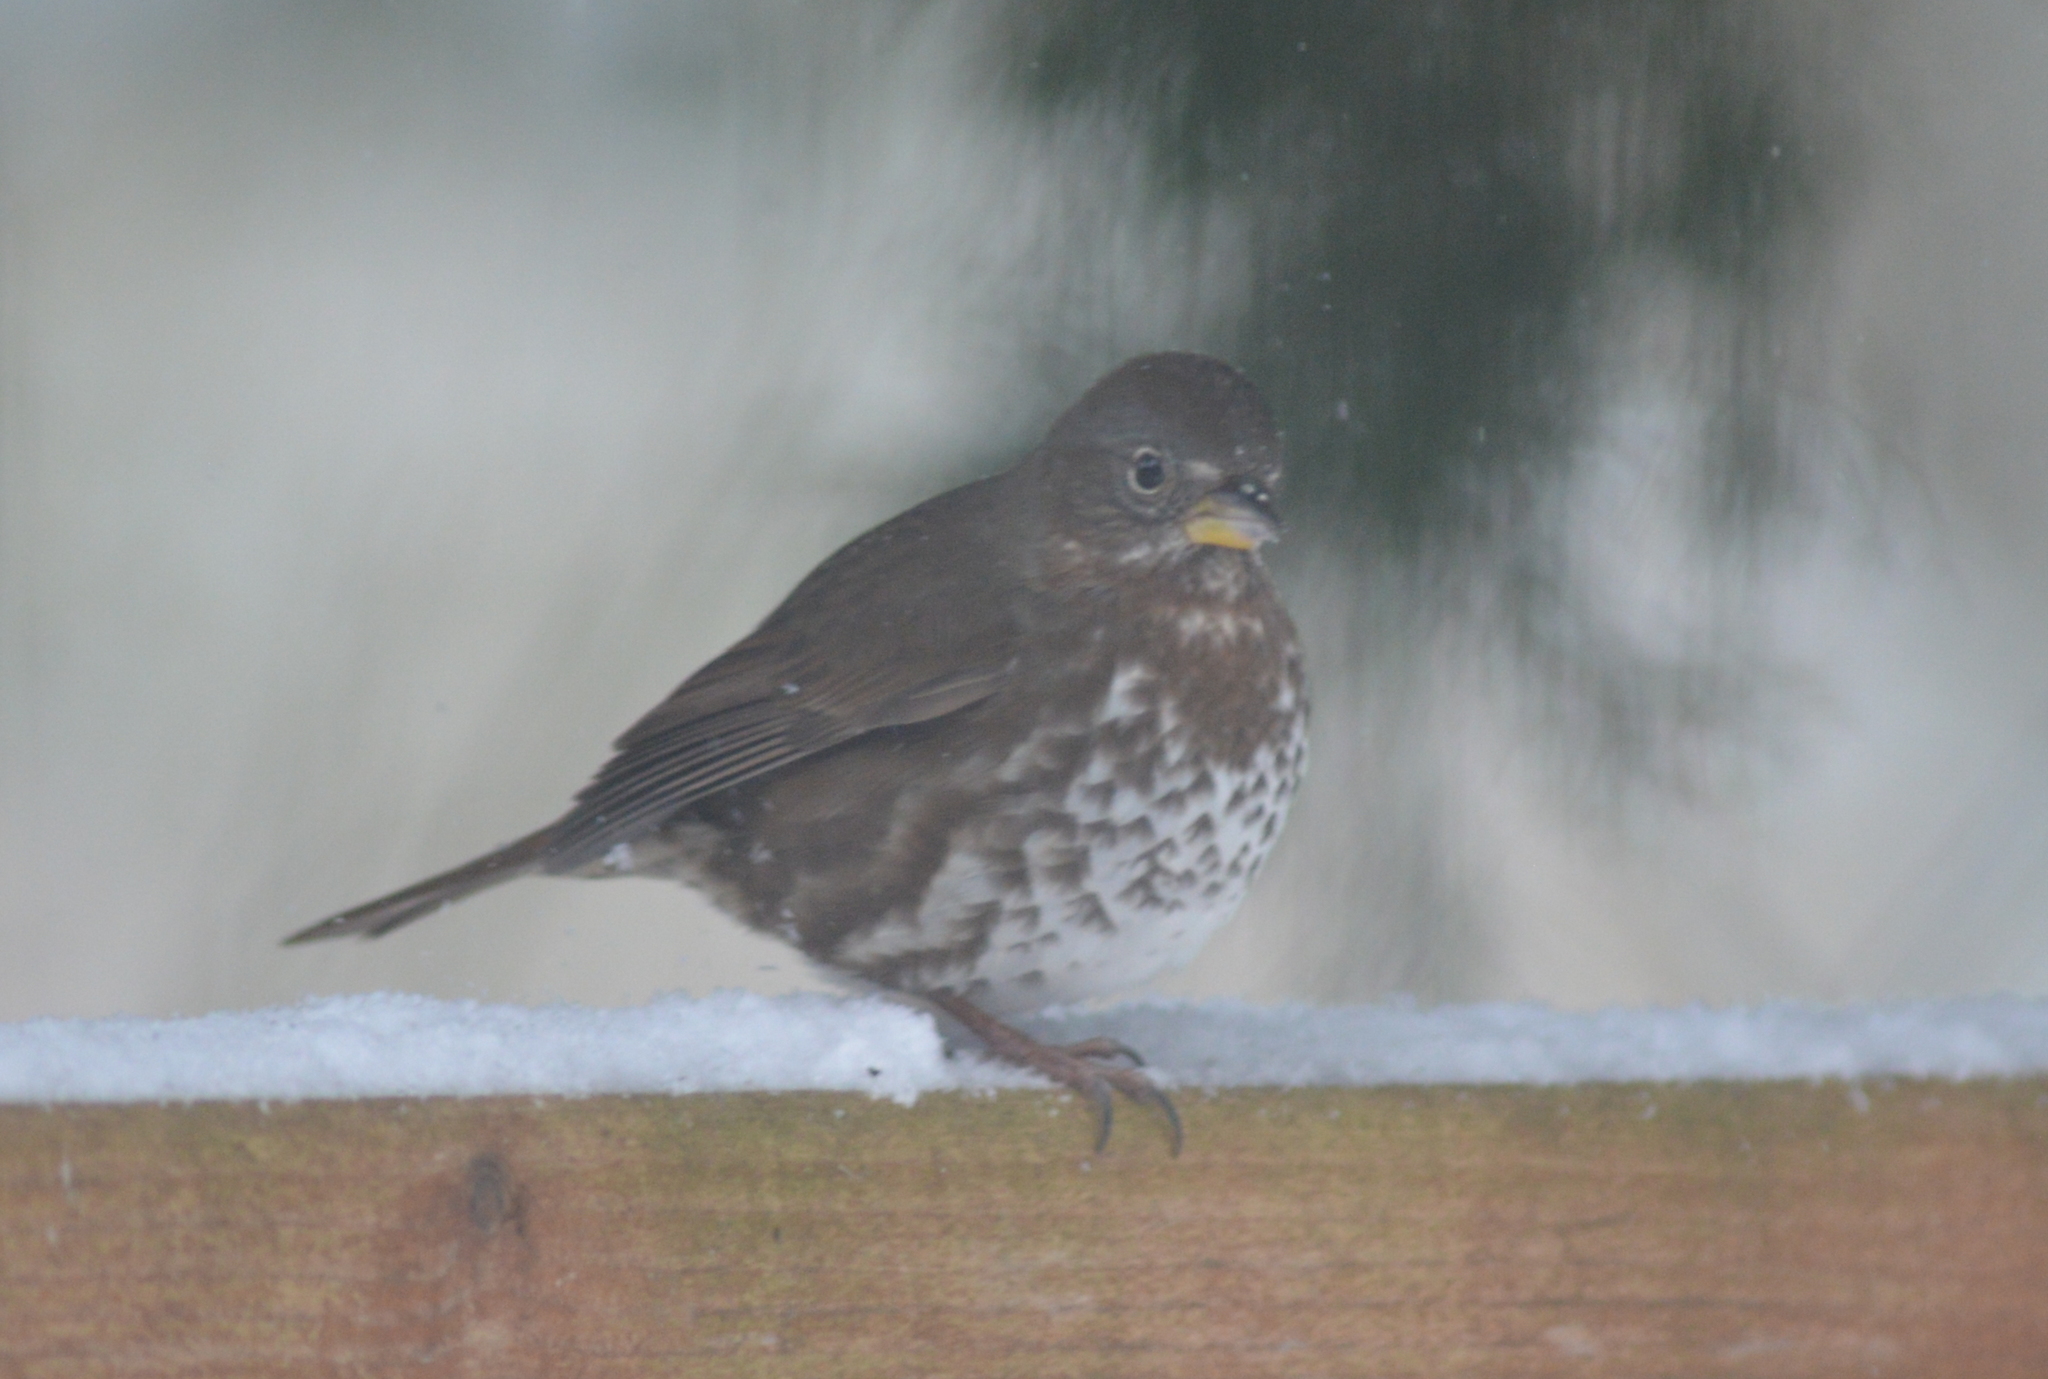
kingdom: Animalia
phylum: Chordata
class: Aves
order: Passeriformes
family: Passerellidae
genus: Passerella
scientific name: Passerella iliaca
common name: Fox sparrow
